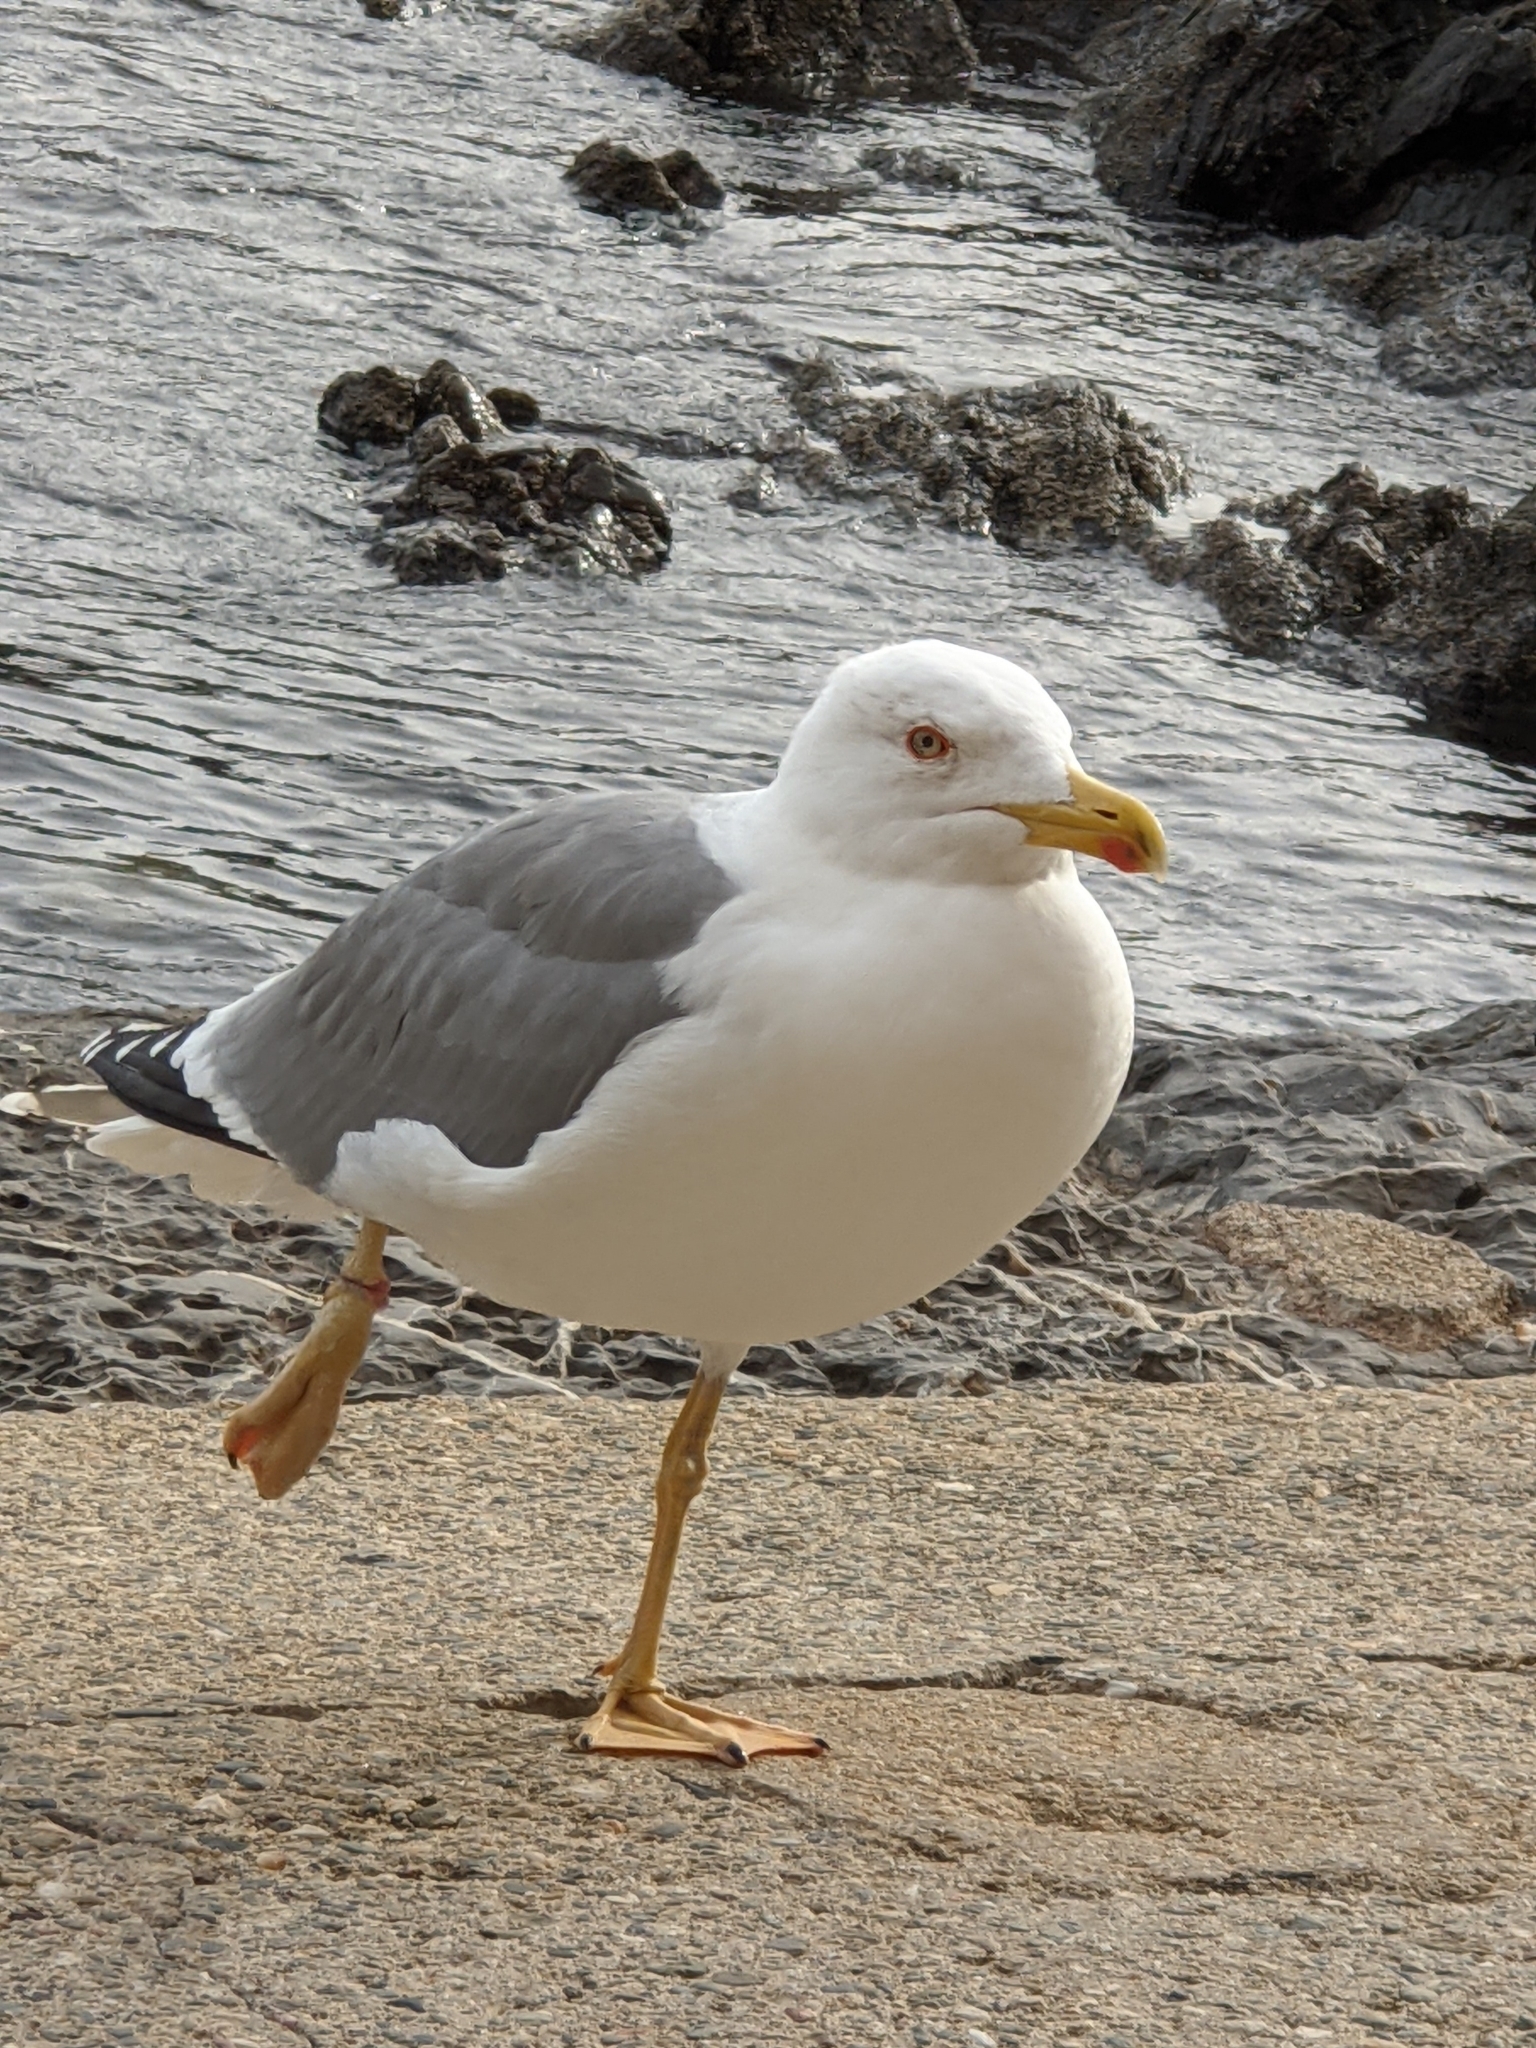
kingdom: Animalia
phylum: Chordata
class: Aves
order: Charadriiformes
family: Laridae
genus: Larus
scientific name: Larus michahellis
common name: Yellow-legged gull
